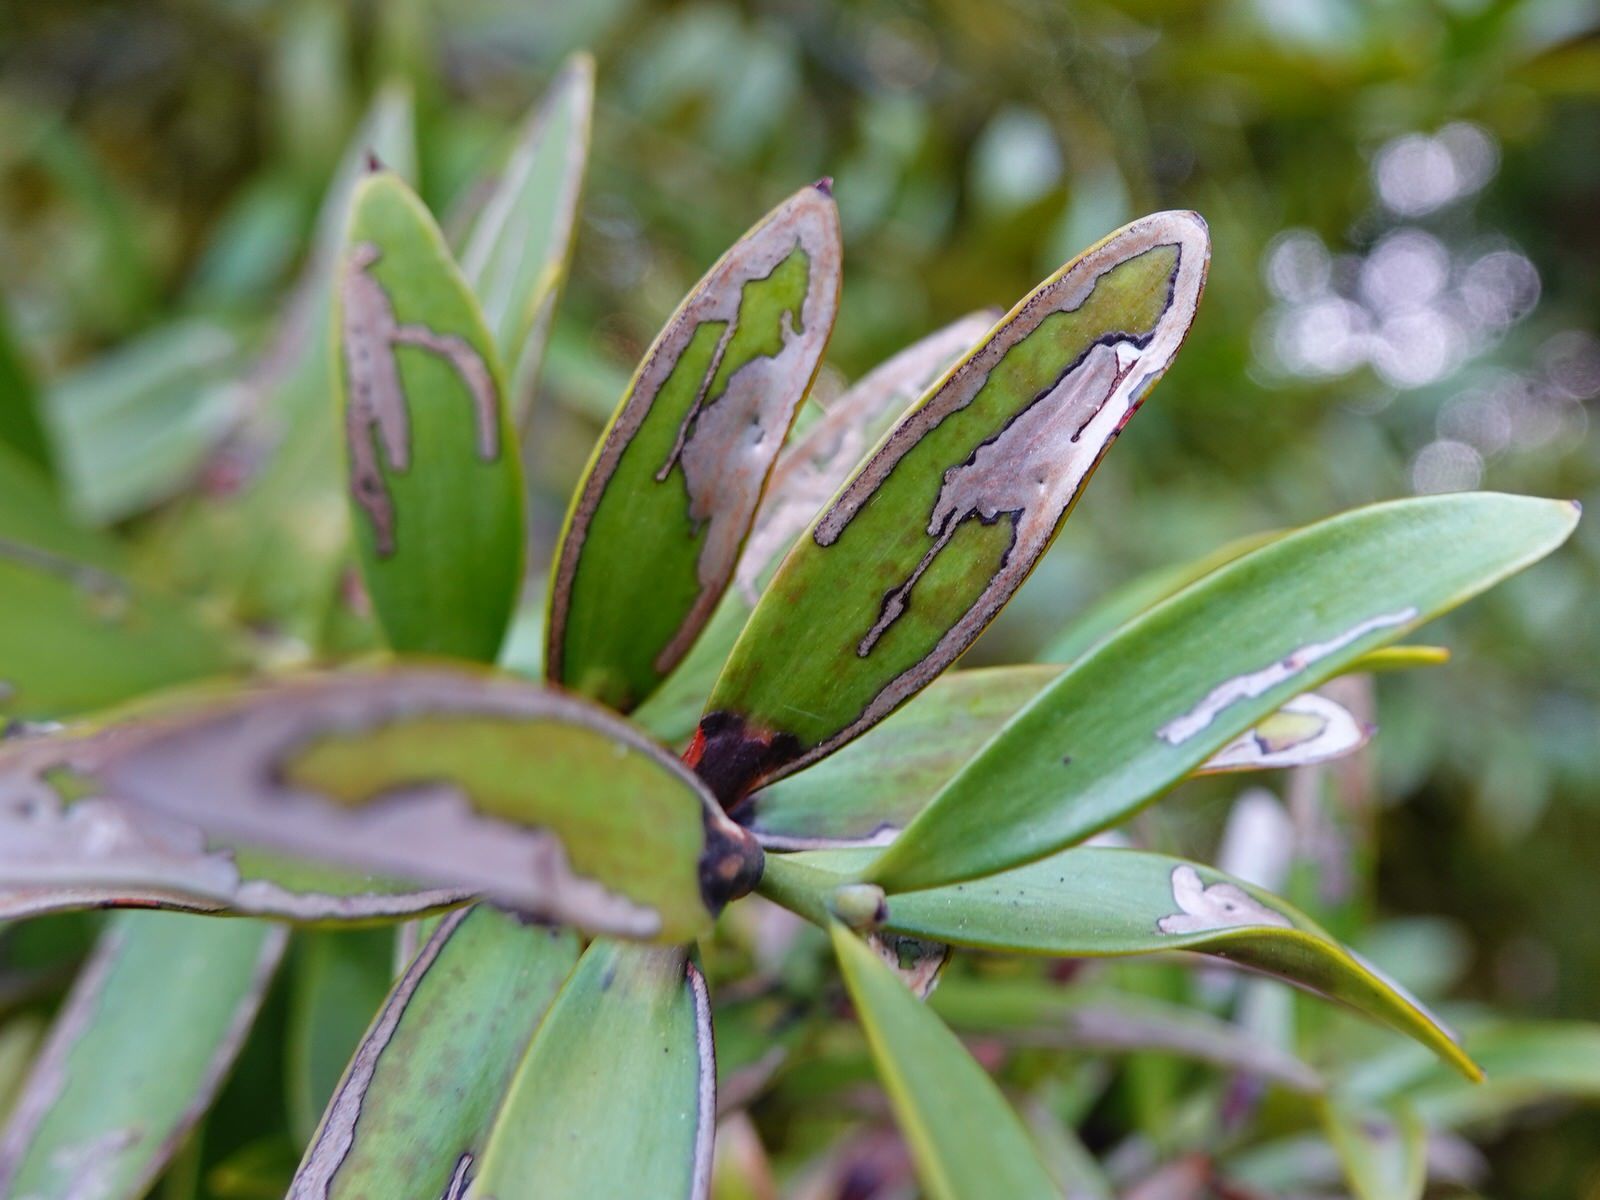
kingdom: Animalia
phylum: Arthropoda
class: Insecta
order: Lepidoptera
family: Gracillariidae
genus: Acrocercops
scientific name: Acrocercops leucotoma
